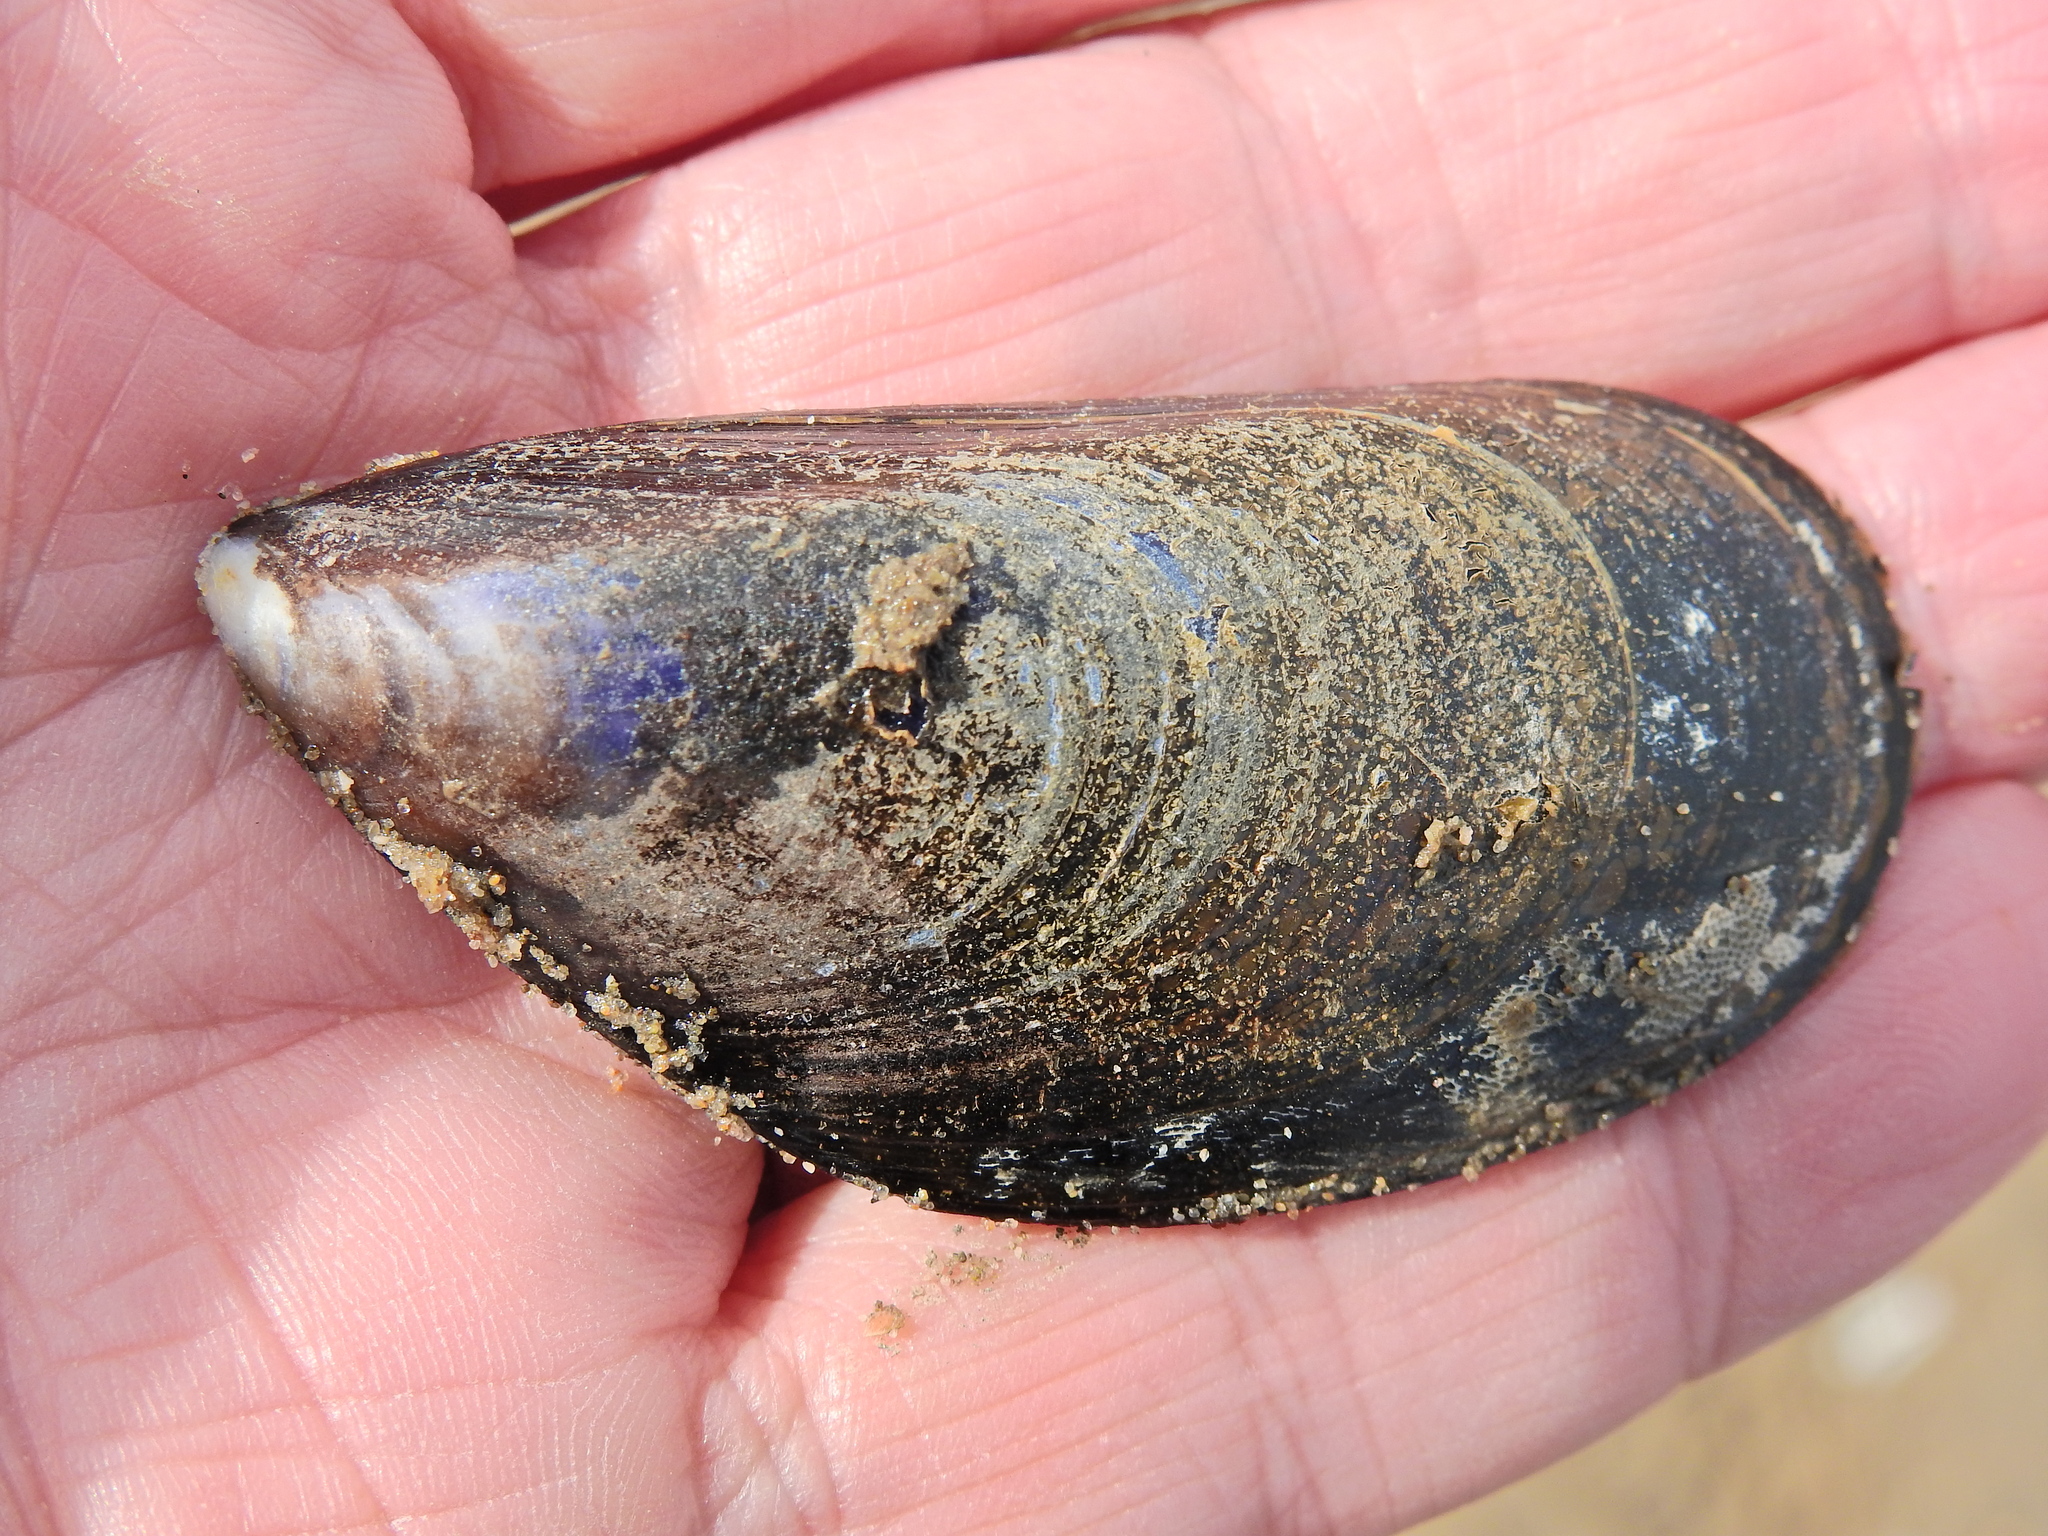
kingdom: Animalia
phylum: Mollusca
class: Bivalvia
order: Mytilida
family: Mytilidae
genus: Mytilus
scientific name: Mytilus edulis
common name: Blue mussel
